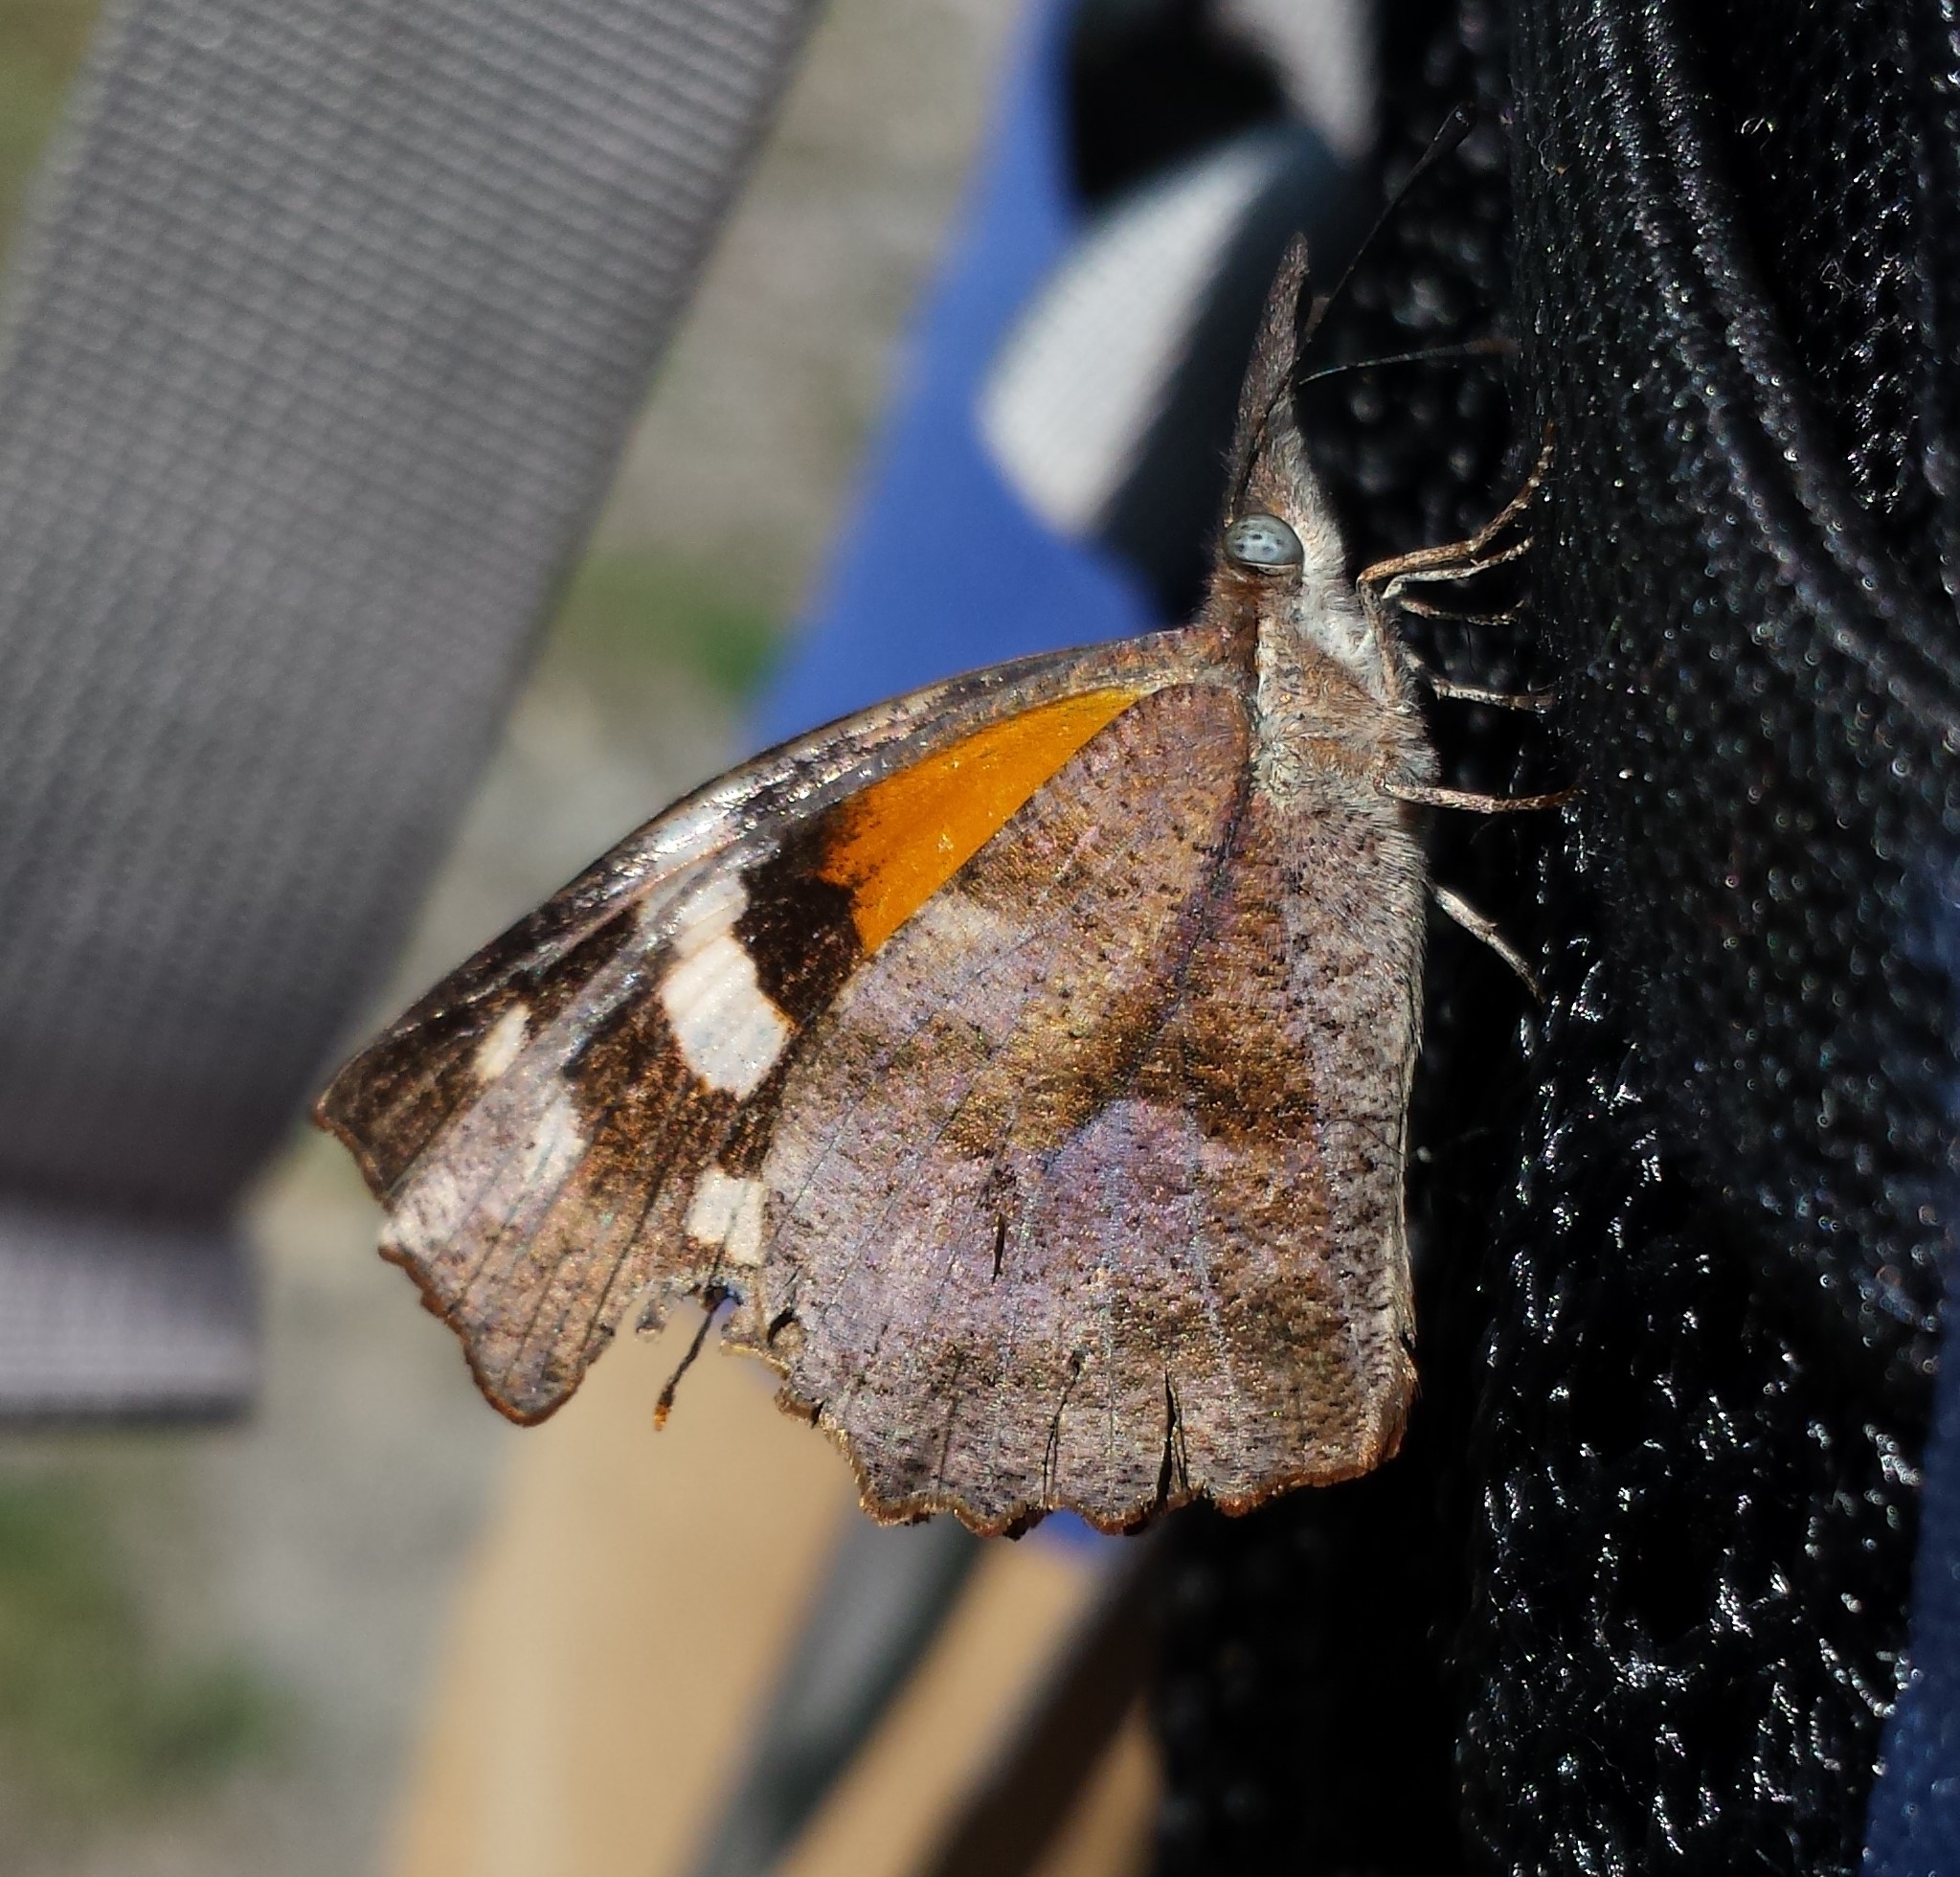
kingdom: Animalia
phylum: Arthropoda
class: Insecta
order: Lepidoptera
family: Nymphalidae
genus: Libytheana
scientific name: Libytheana carinenta
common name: American snout
